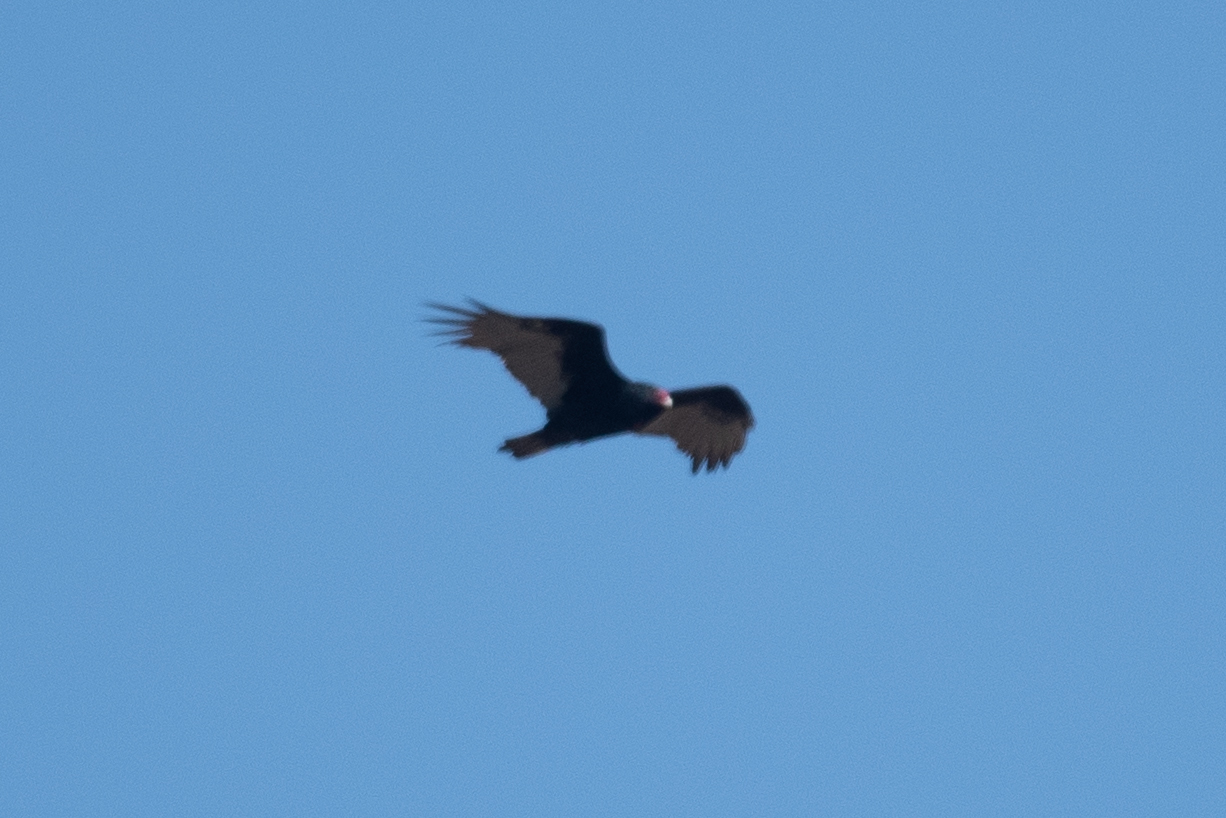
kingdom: Animalia
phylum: Chordata
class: Aves
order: Accipitriformes
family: Cathartidae
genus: Cathartes
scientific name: Cathartes aura
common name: Turkey vulture
